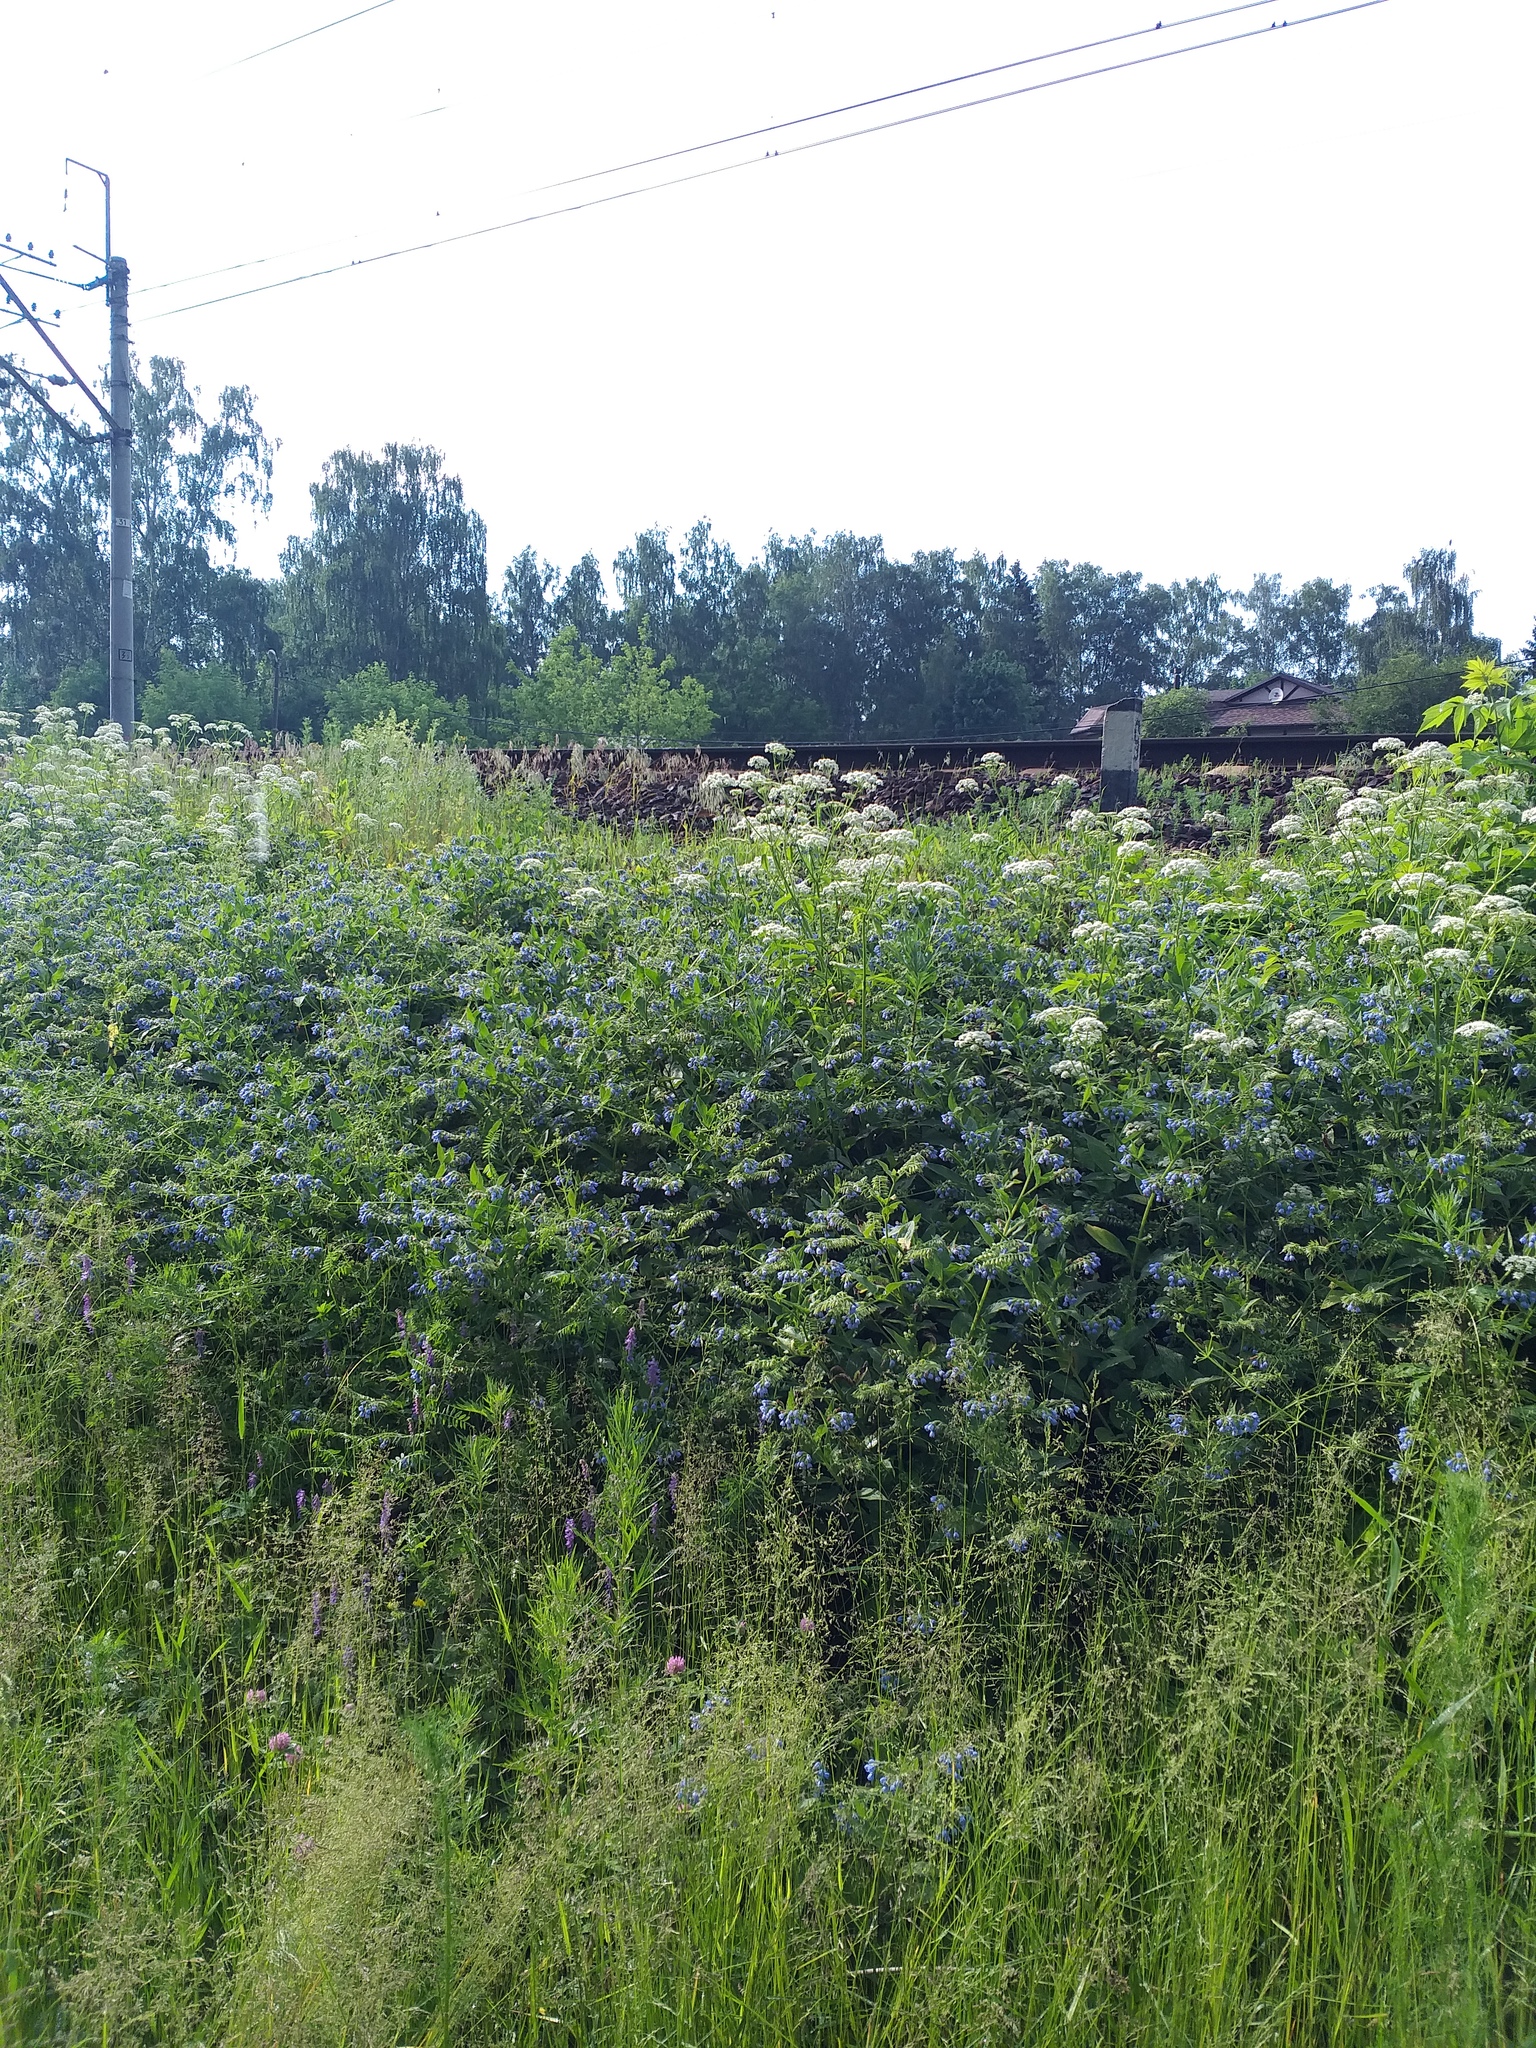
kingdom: Plantae
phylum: Tracheophyta
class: Magnoliopsida
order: Boraginales
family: Boraginaceae
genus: Symphytum
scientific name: Symphytum caucasicum
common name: Caucasian comfrey
